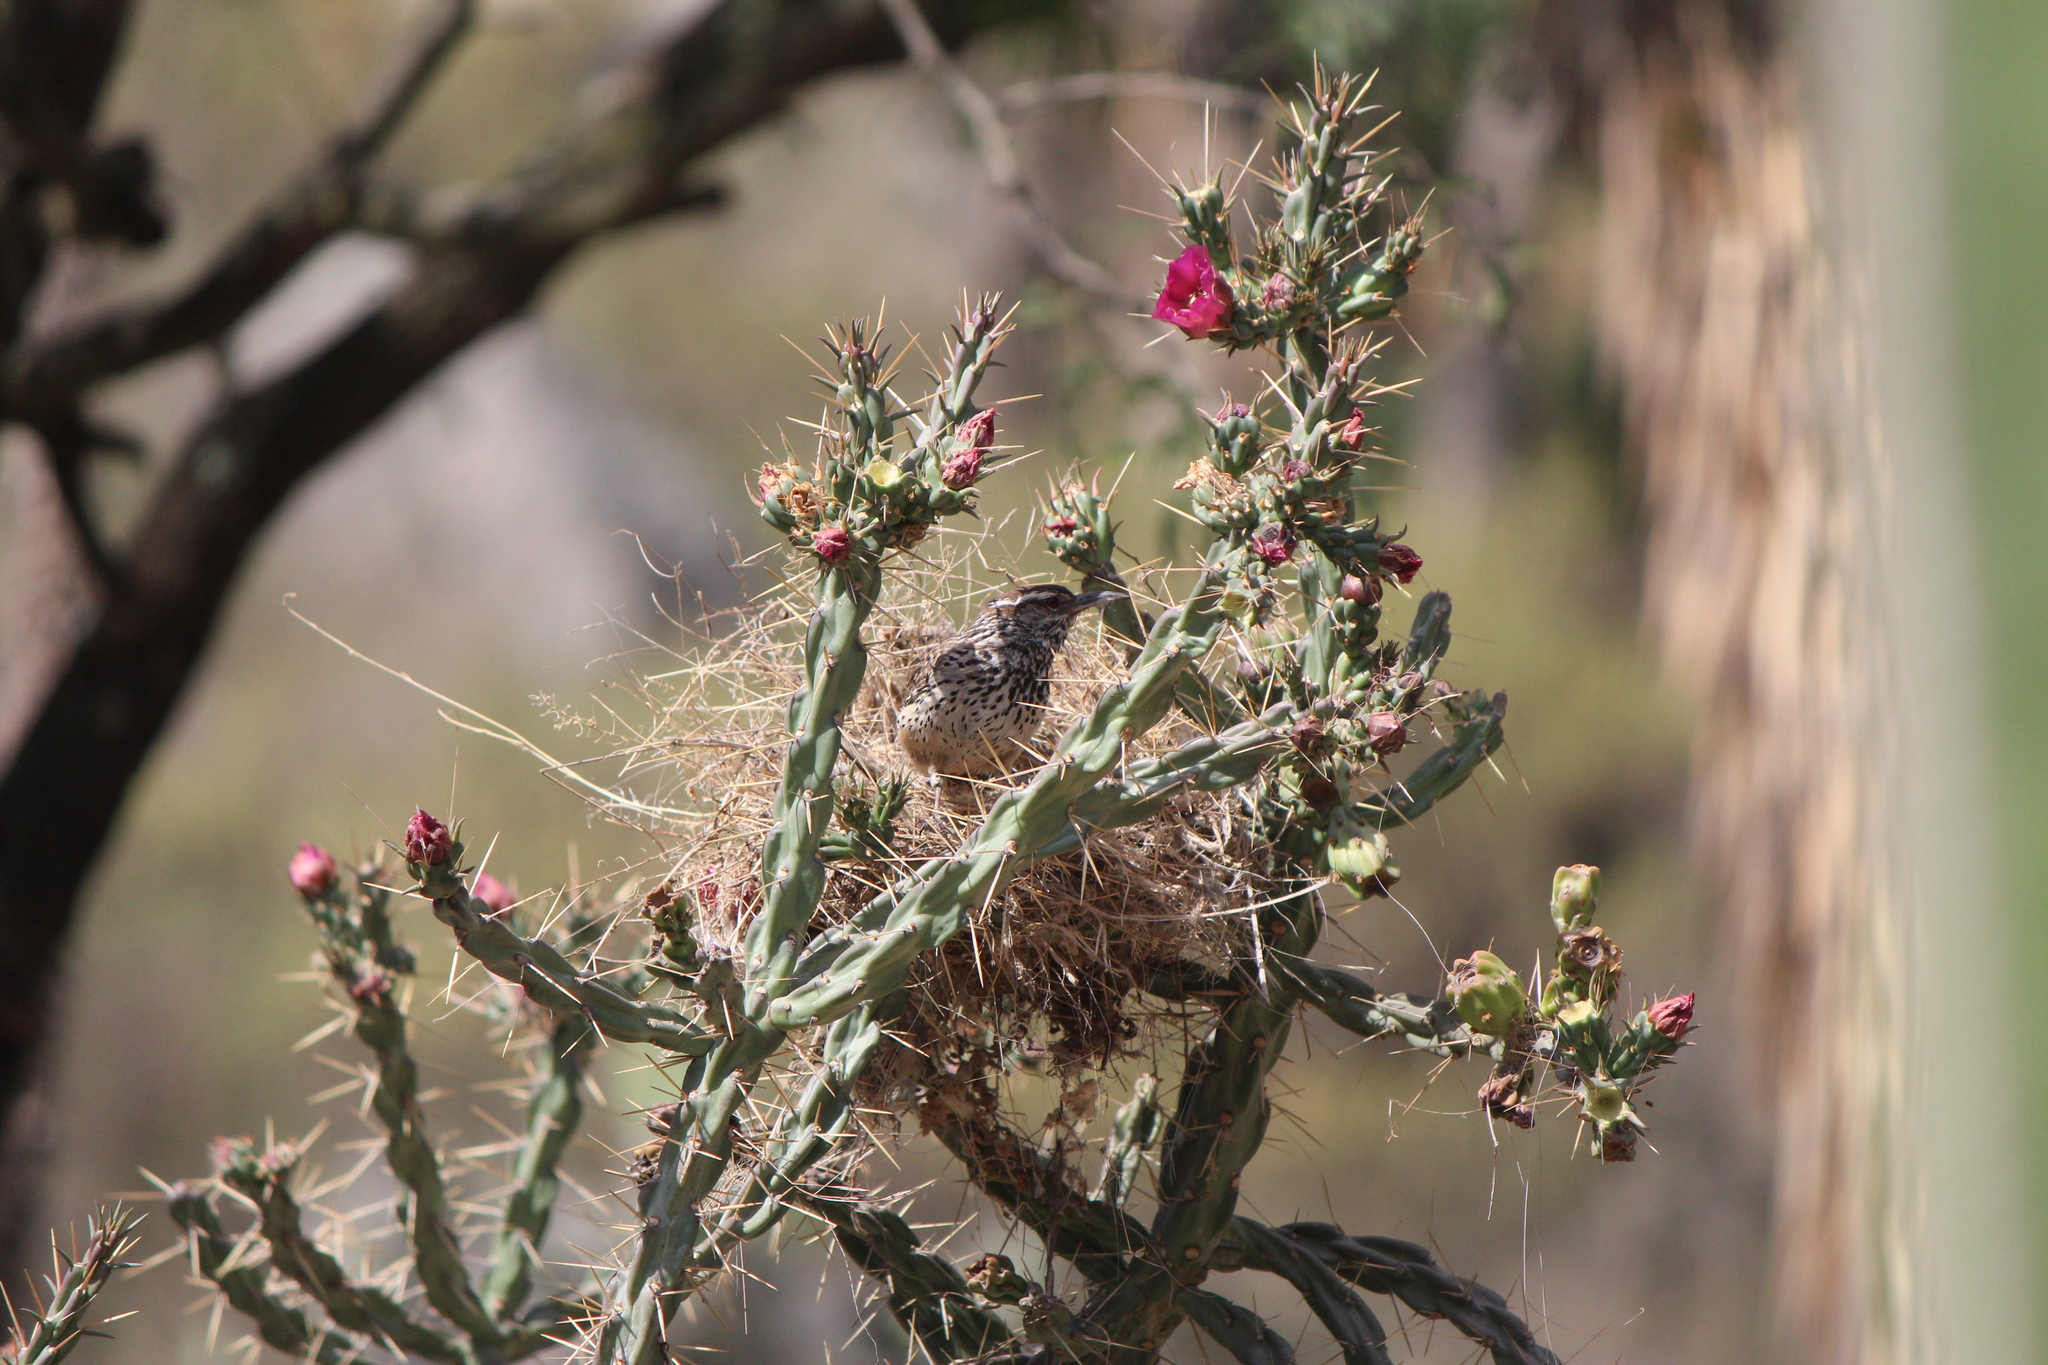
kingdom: Animalia
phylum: Chordata
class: Aves
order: Passeriformes
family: Troglodytidae
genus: Campylorhynchus
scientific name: Campylorhynchus brunneicapillus
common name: Cactus wren
